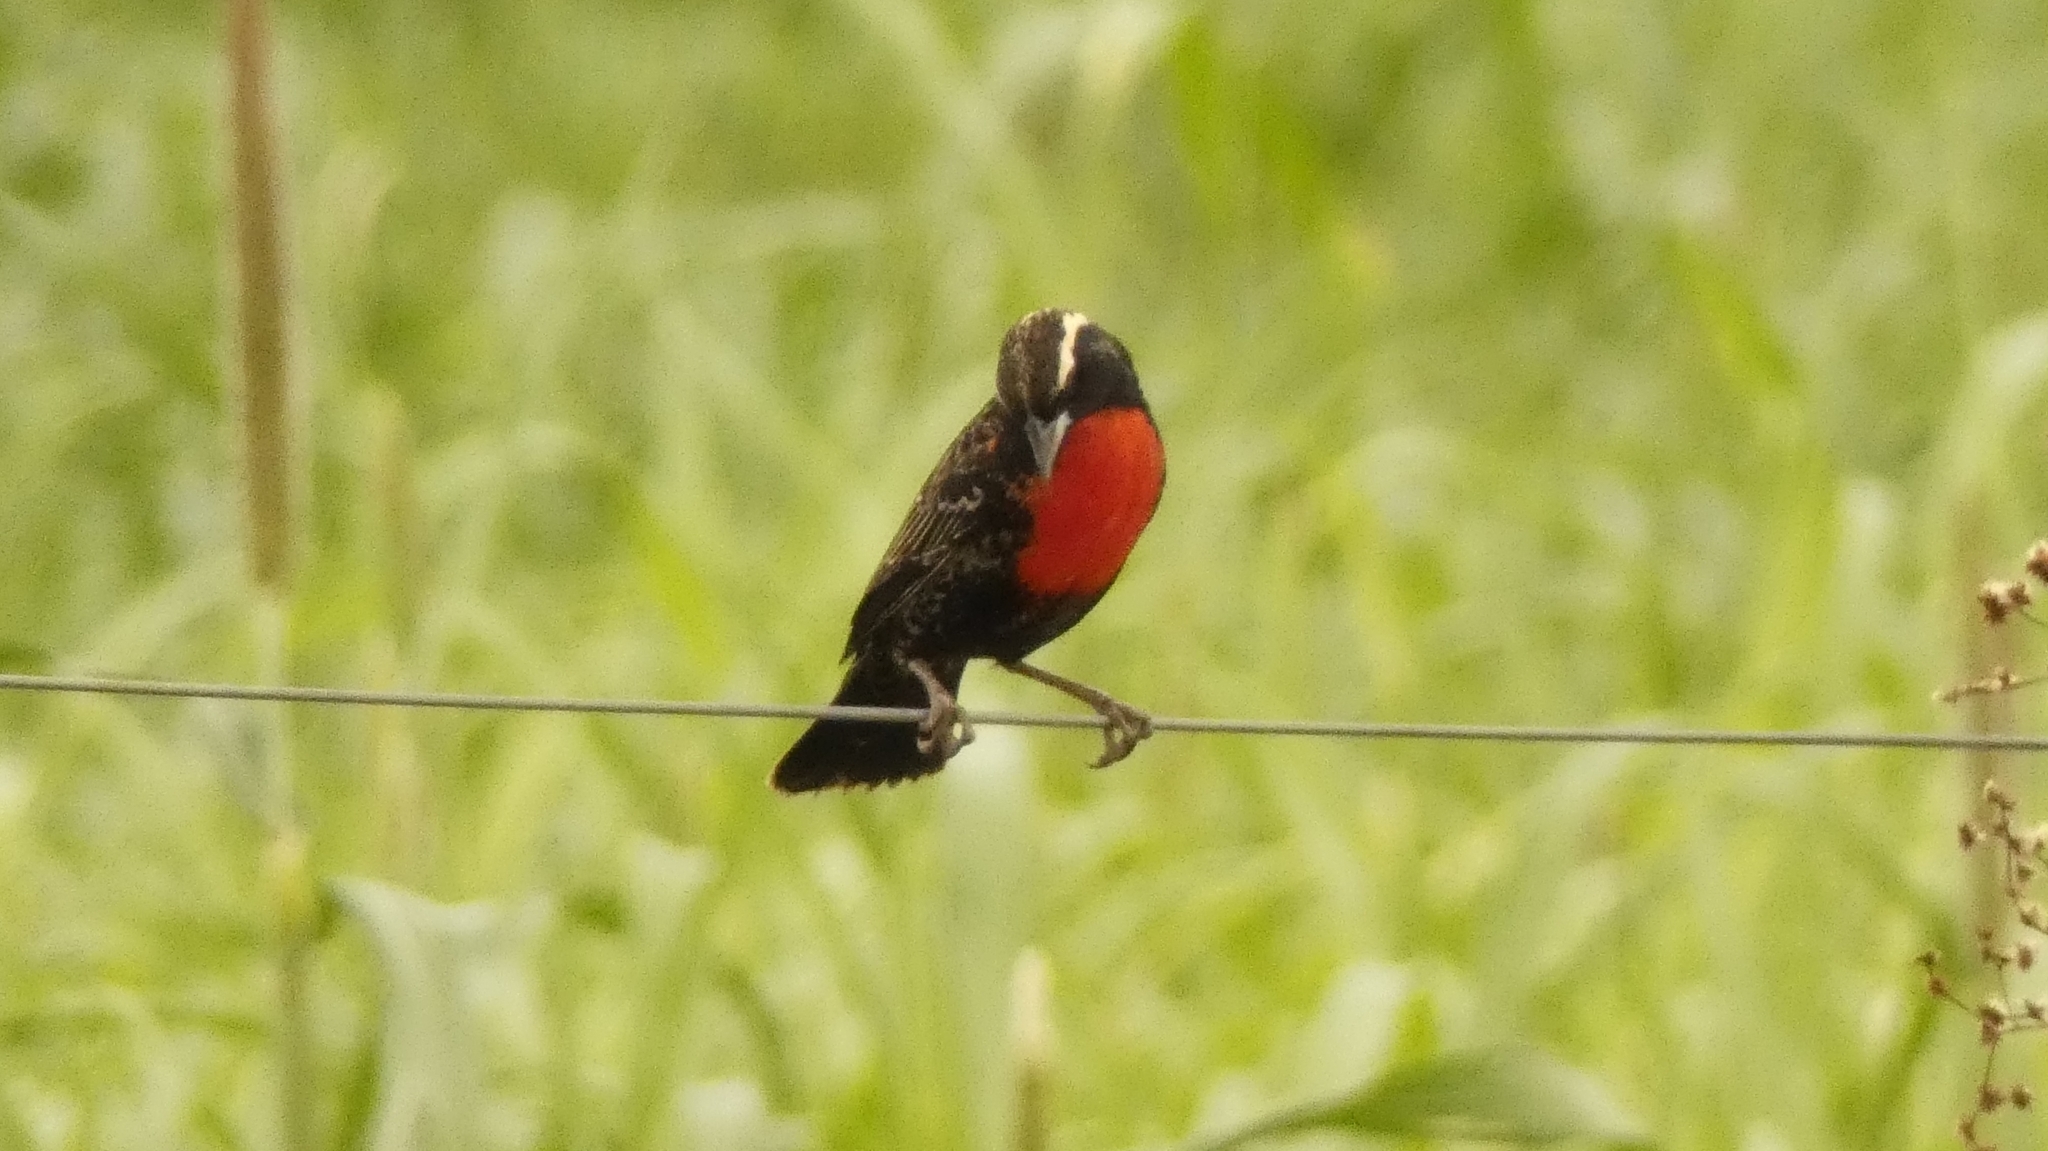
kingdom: Animalia
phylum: Chordata
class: Aves
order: Passeriformes
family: Icteridae
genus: Sturnella
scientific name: Sturnella superciliaris
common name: White-browed blackbird
